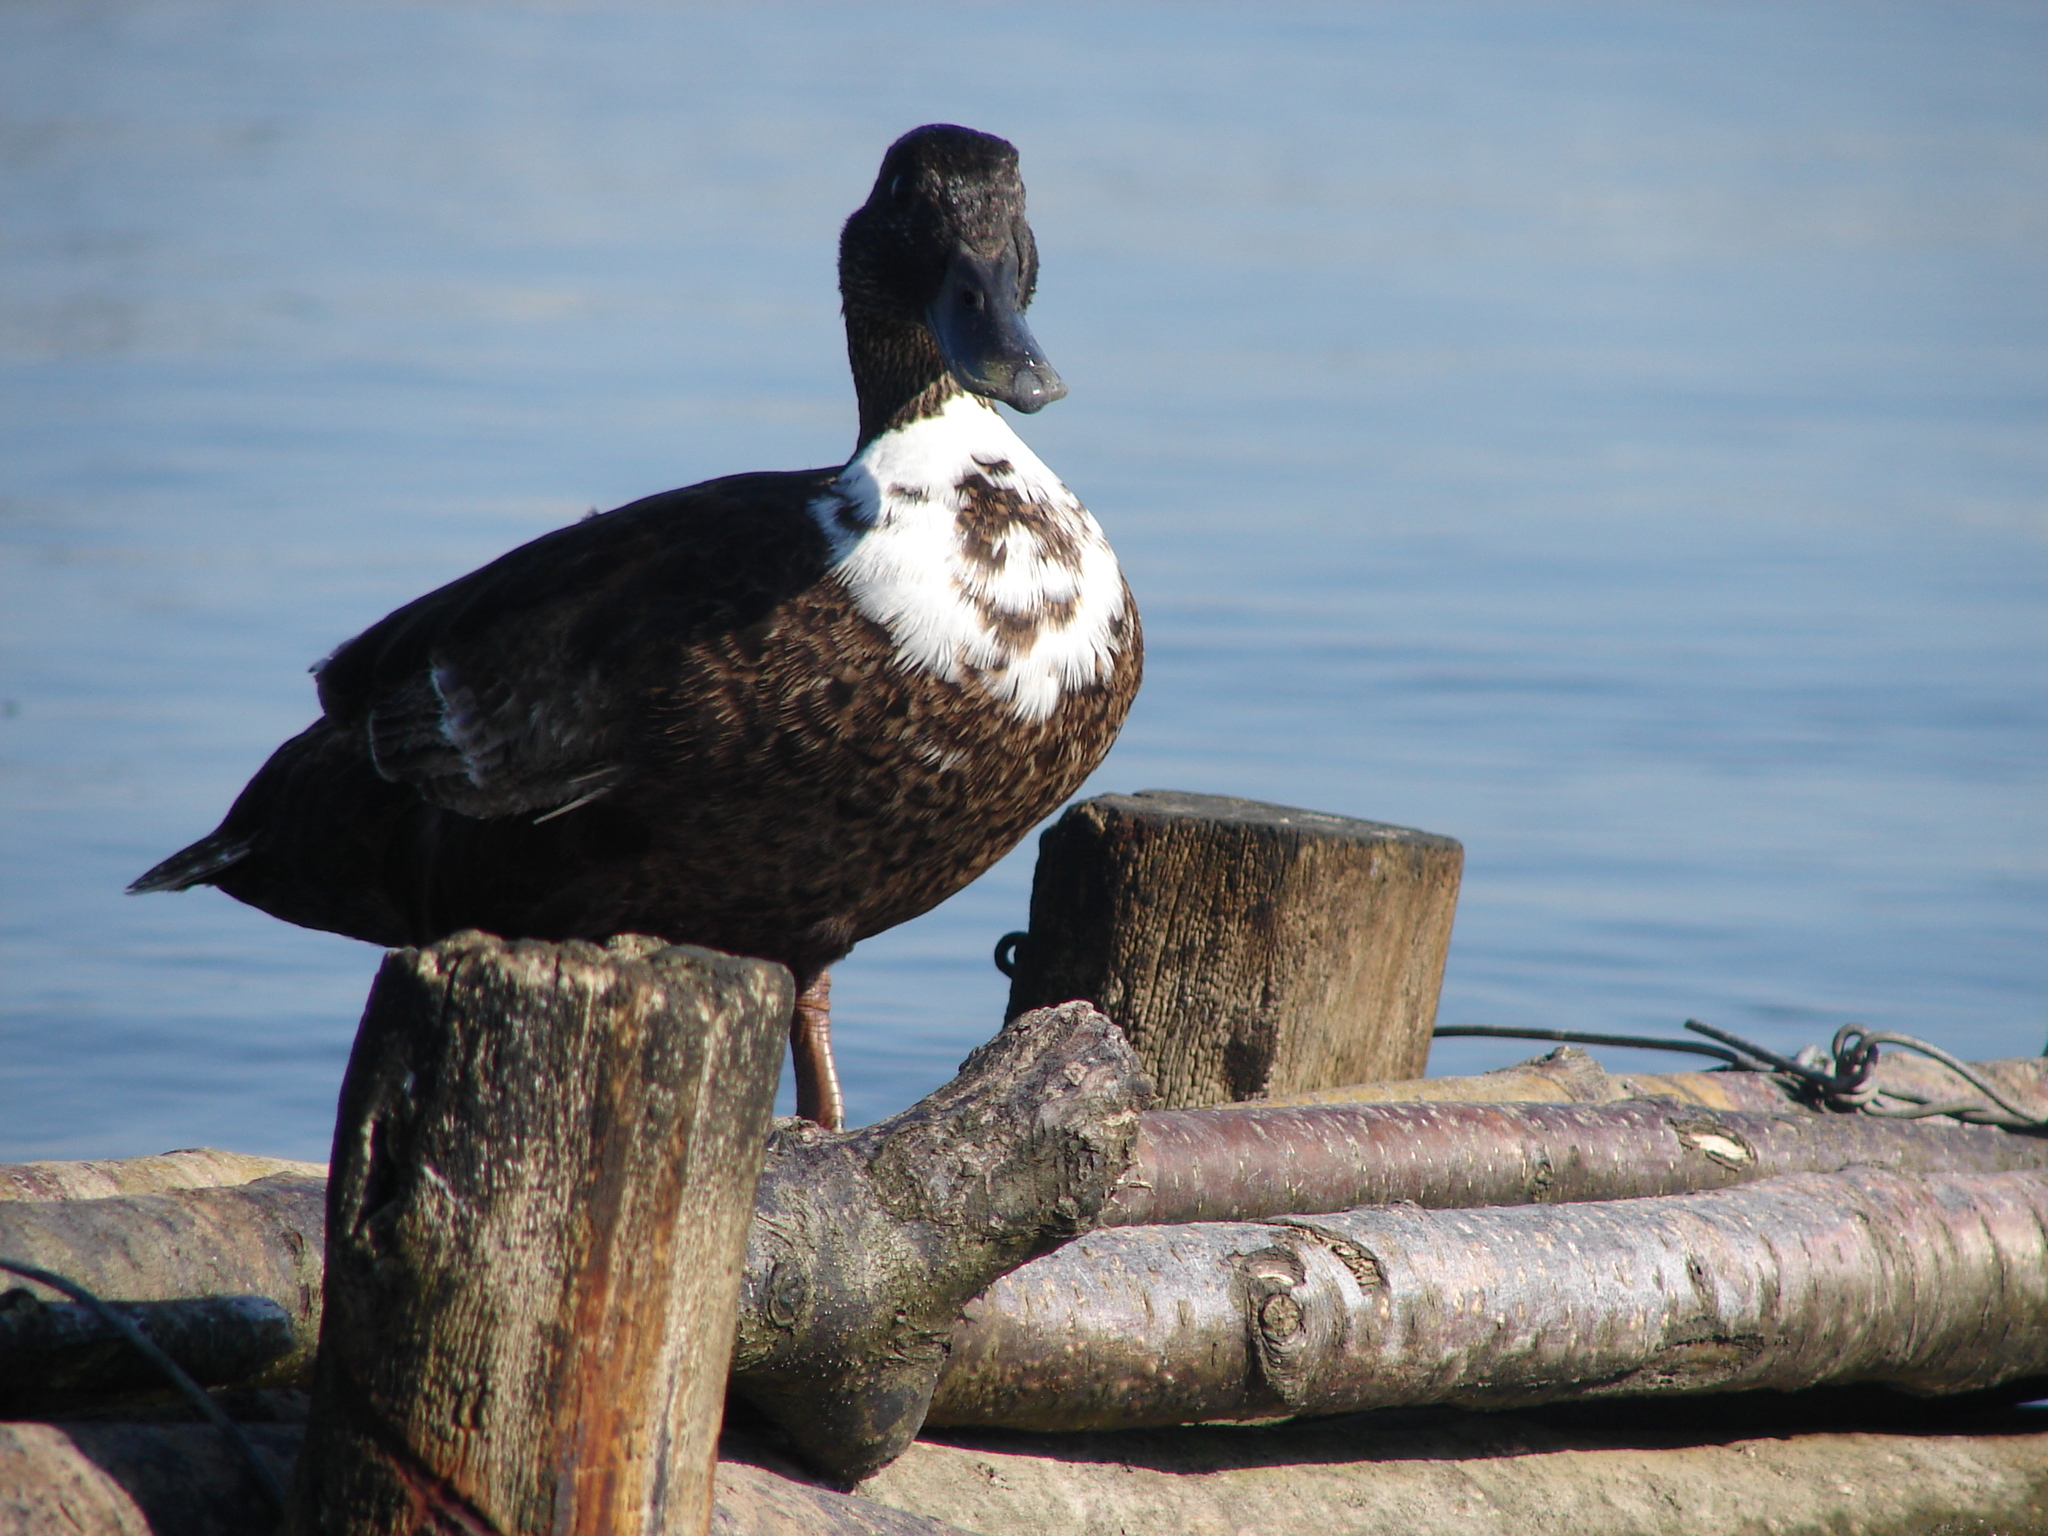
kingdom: Animalia
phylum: Chordata
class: Aves
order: Anseriformes
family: Anatidae
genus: Anas
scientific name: Anas platyrhynchos
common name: Mallard
